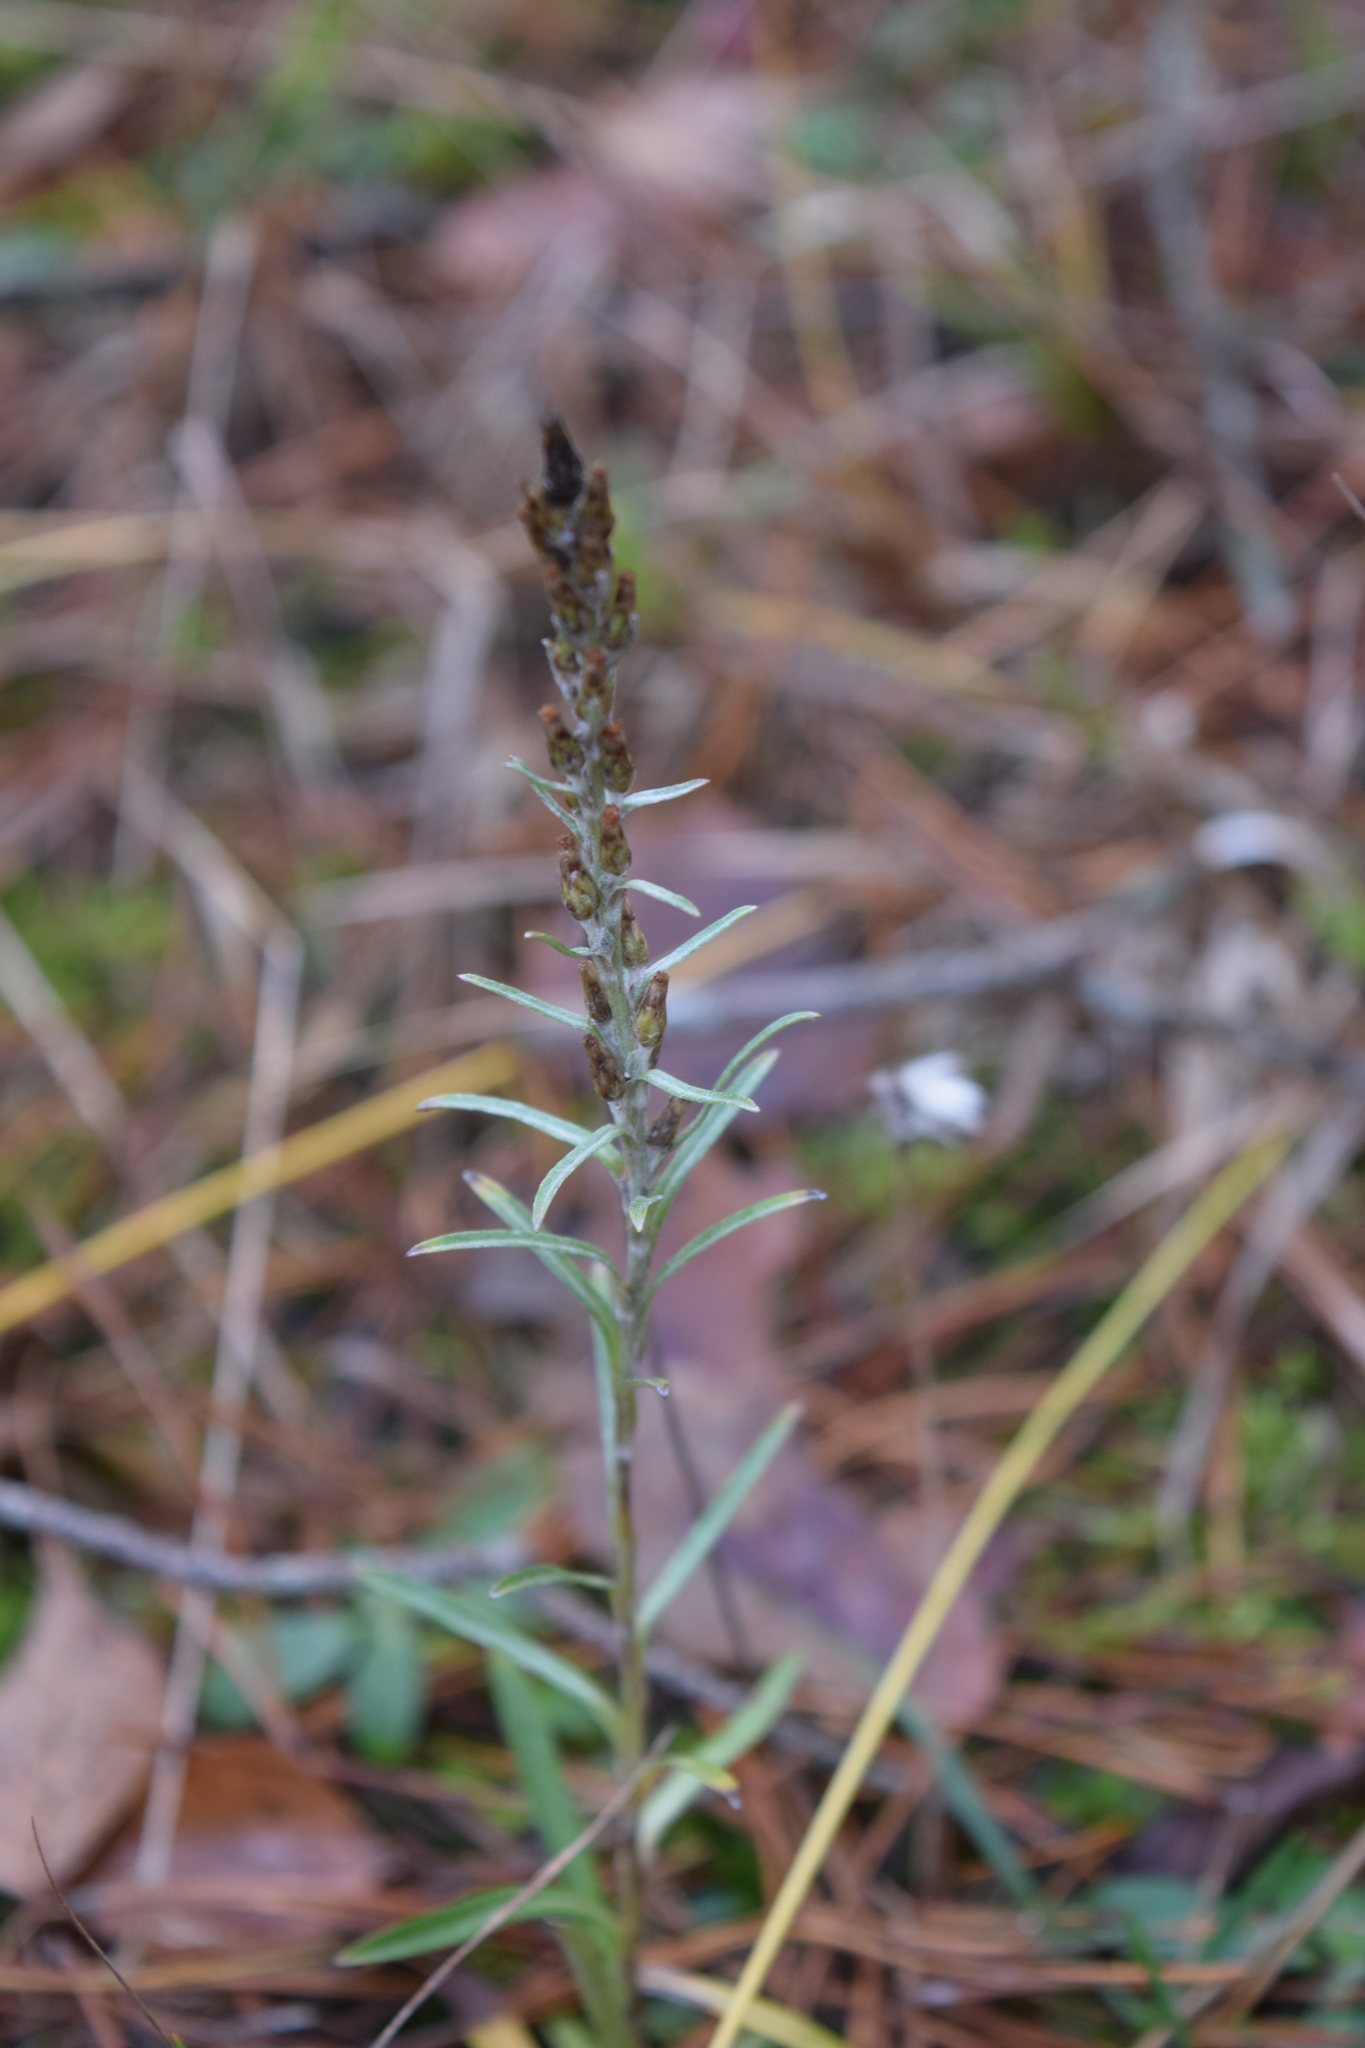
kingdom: Plantae
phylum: Tracheophyta
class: Magnoliopsida
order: Asterales
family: Asteraceae
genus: Omalotheca
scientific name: Omalotheca sylvatica
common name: Heath cudweed
